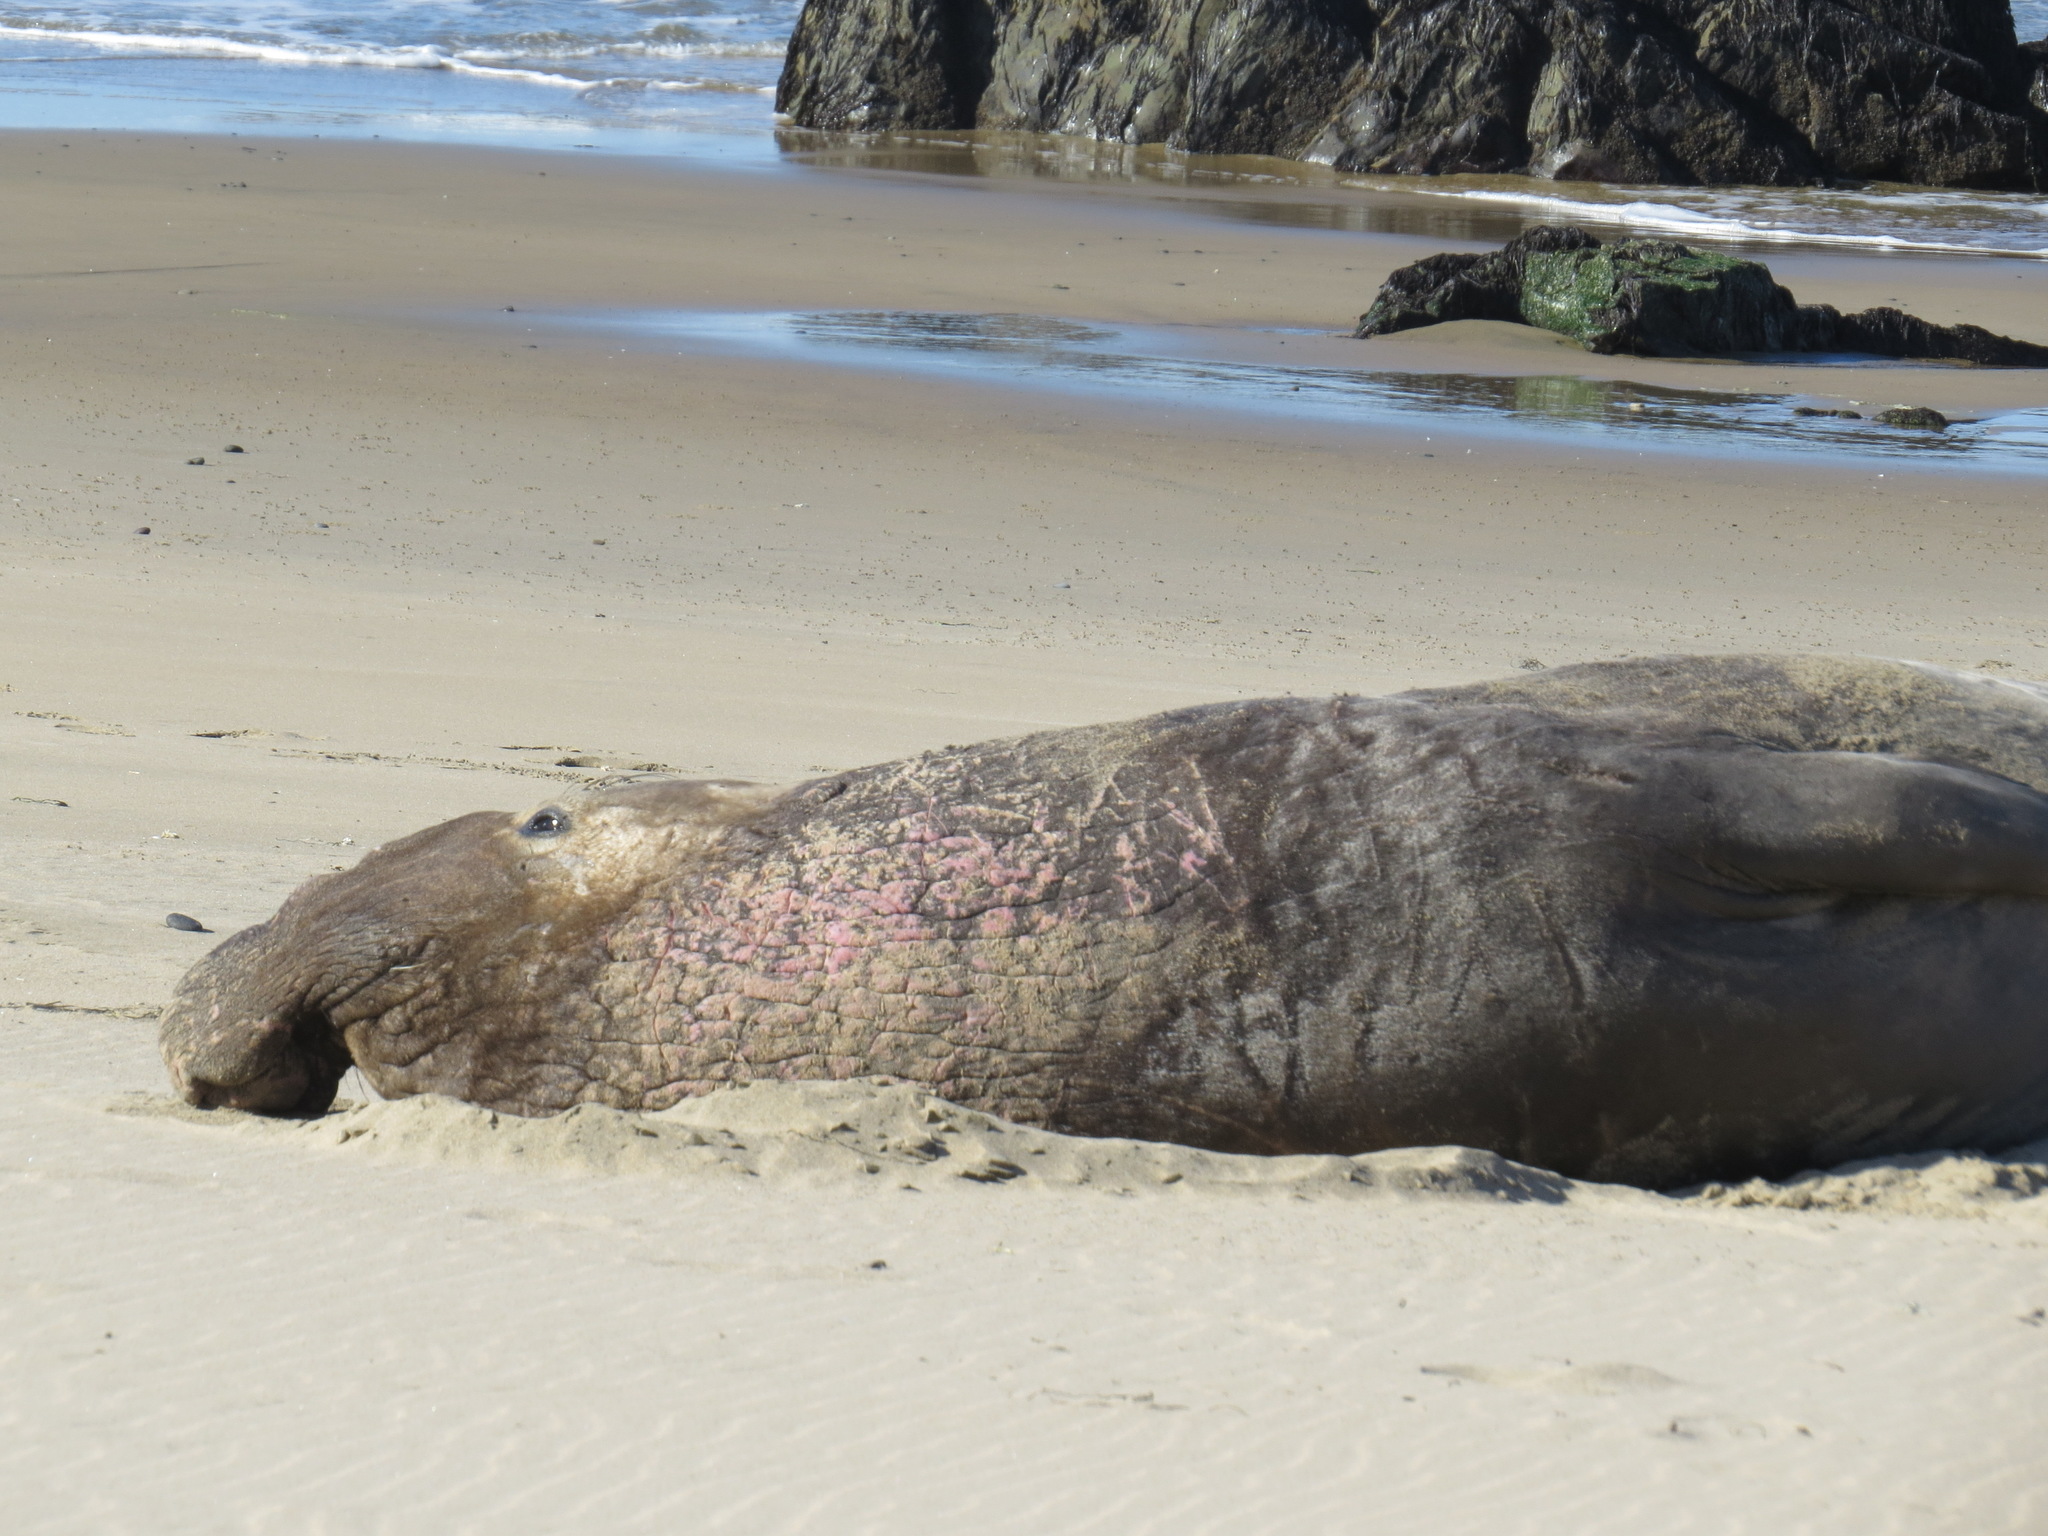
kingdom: Animalia
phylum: Chordata
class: Mammalia
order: Carnivora
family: Phocidae
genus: Mirounga
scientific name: Mirounga angustirostris
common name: Northern elephant seal
